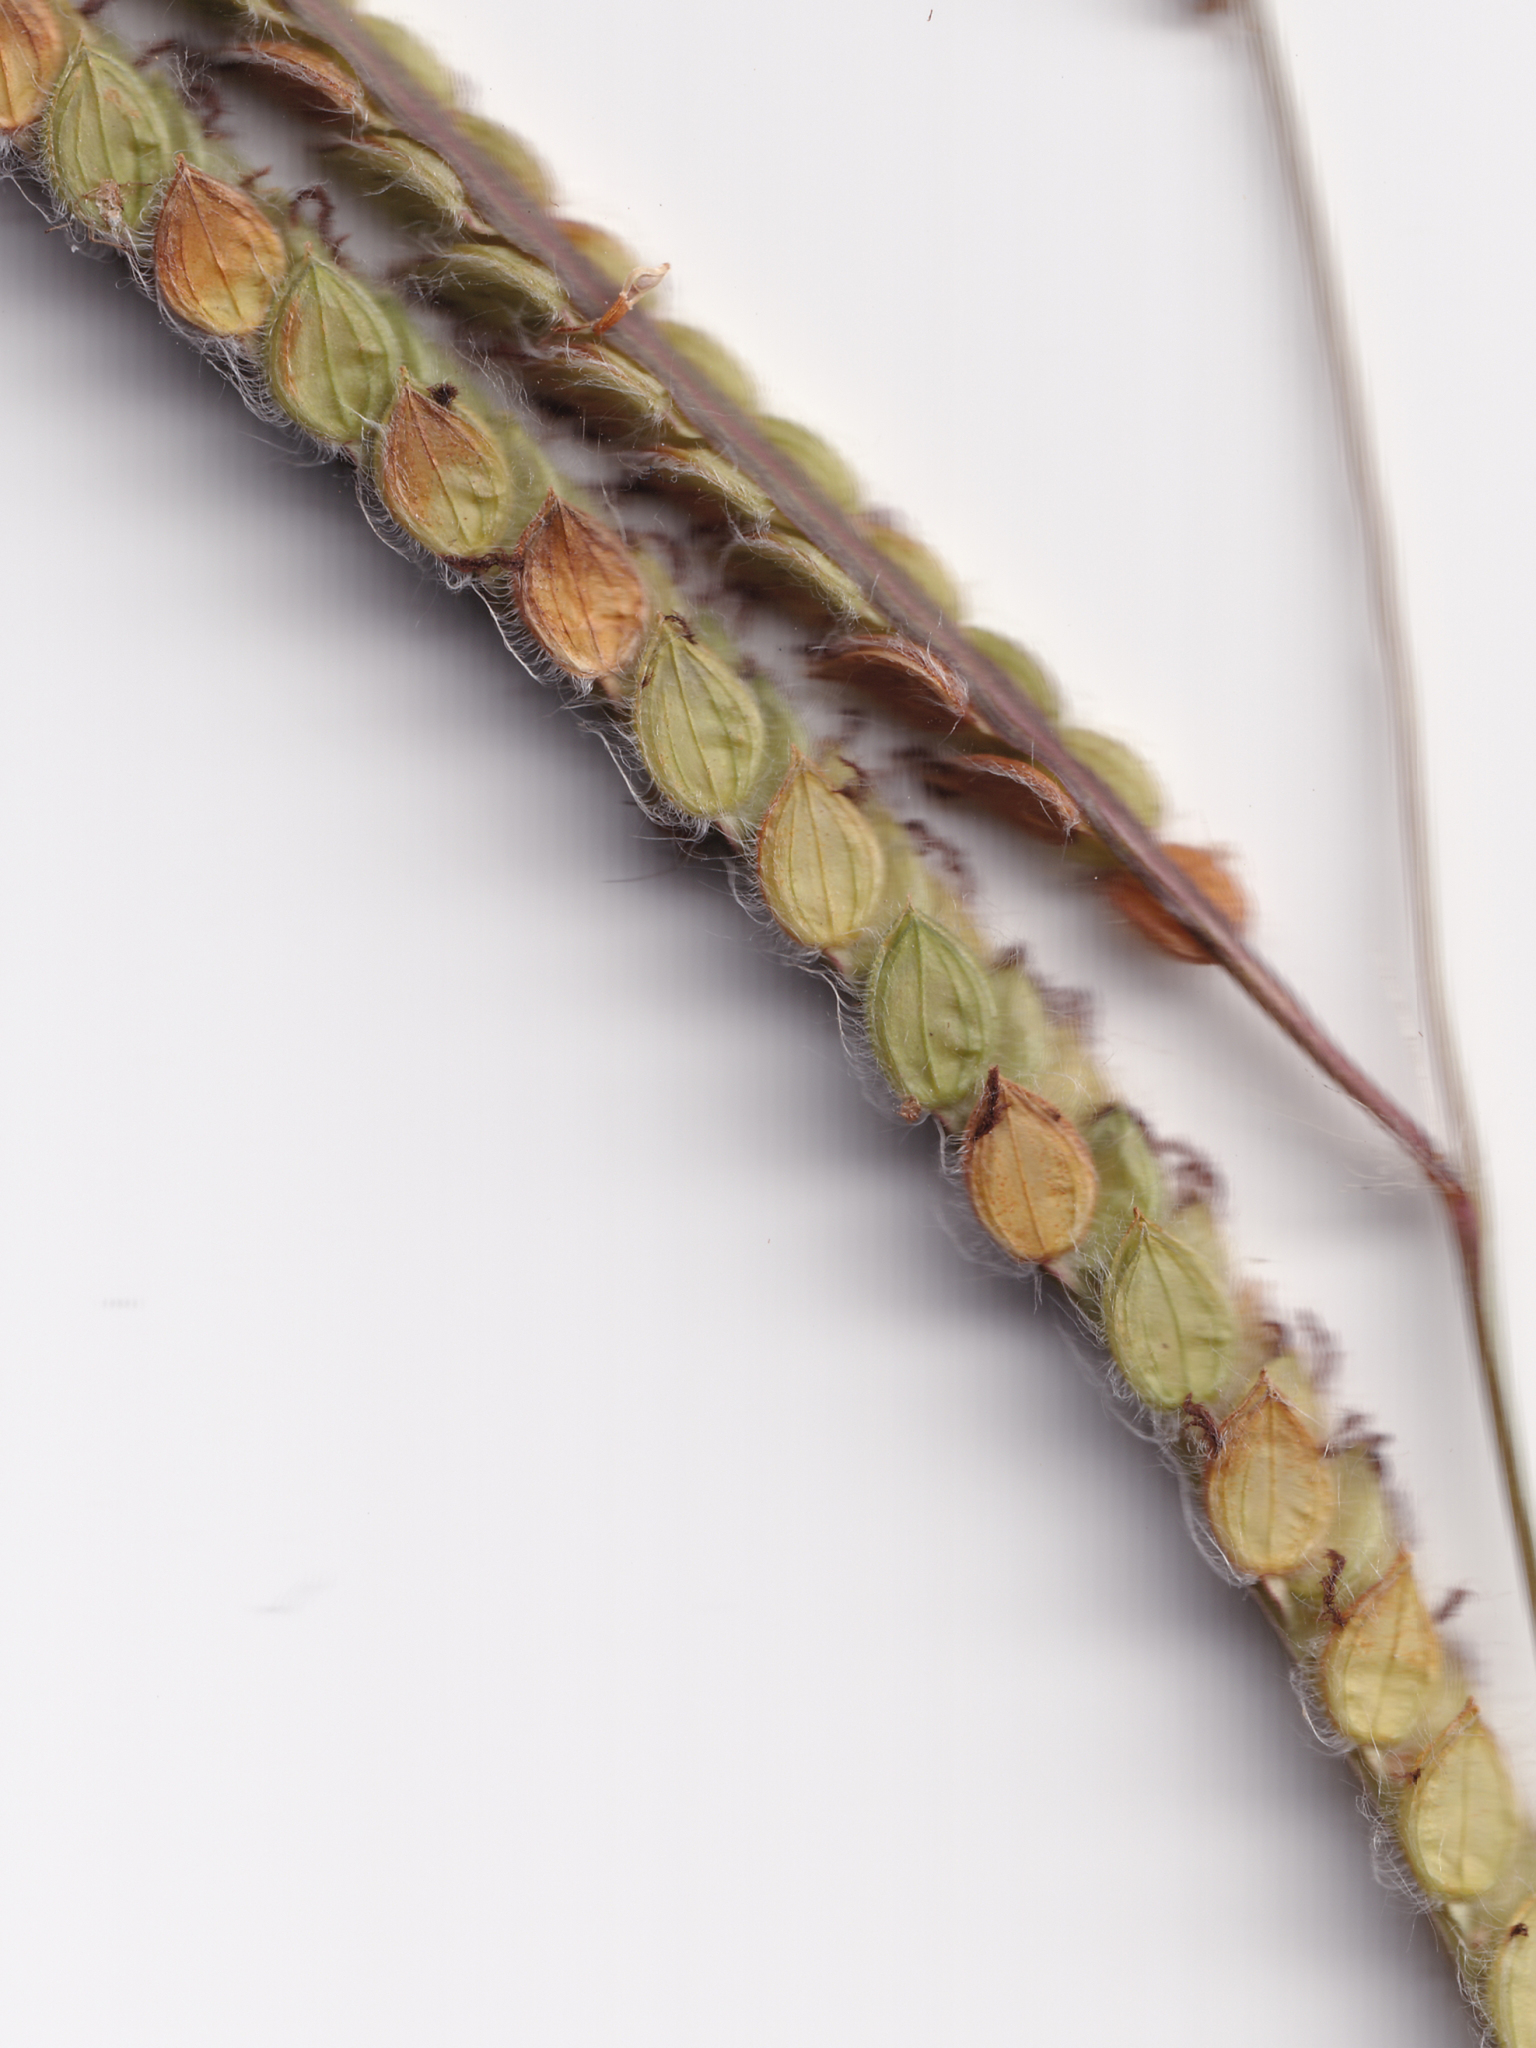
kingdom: Plantae
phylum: Tracheophyta
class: Liliopsida
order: Poales
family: Poaceae
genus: Paspalum
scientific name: Paspalum dilatatum
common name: Dallisgrass
